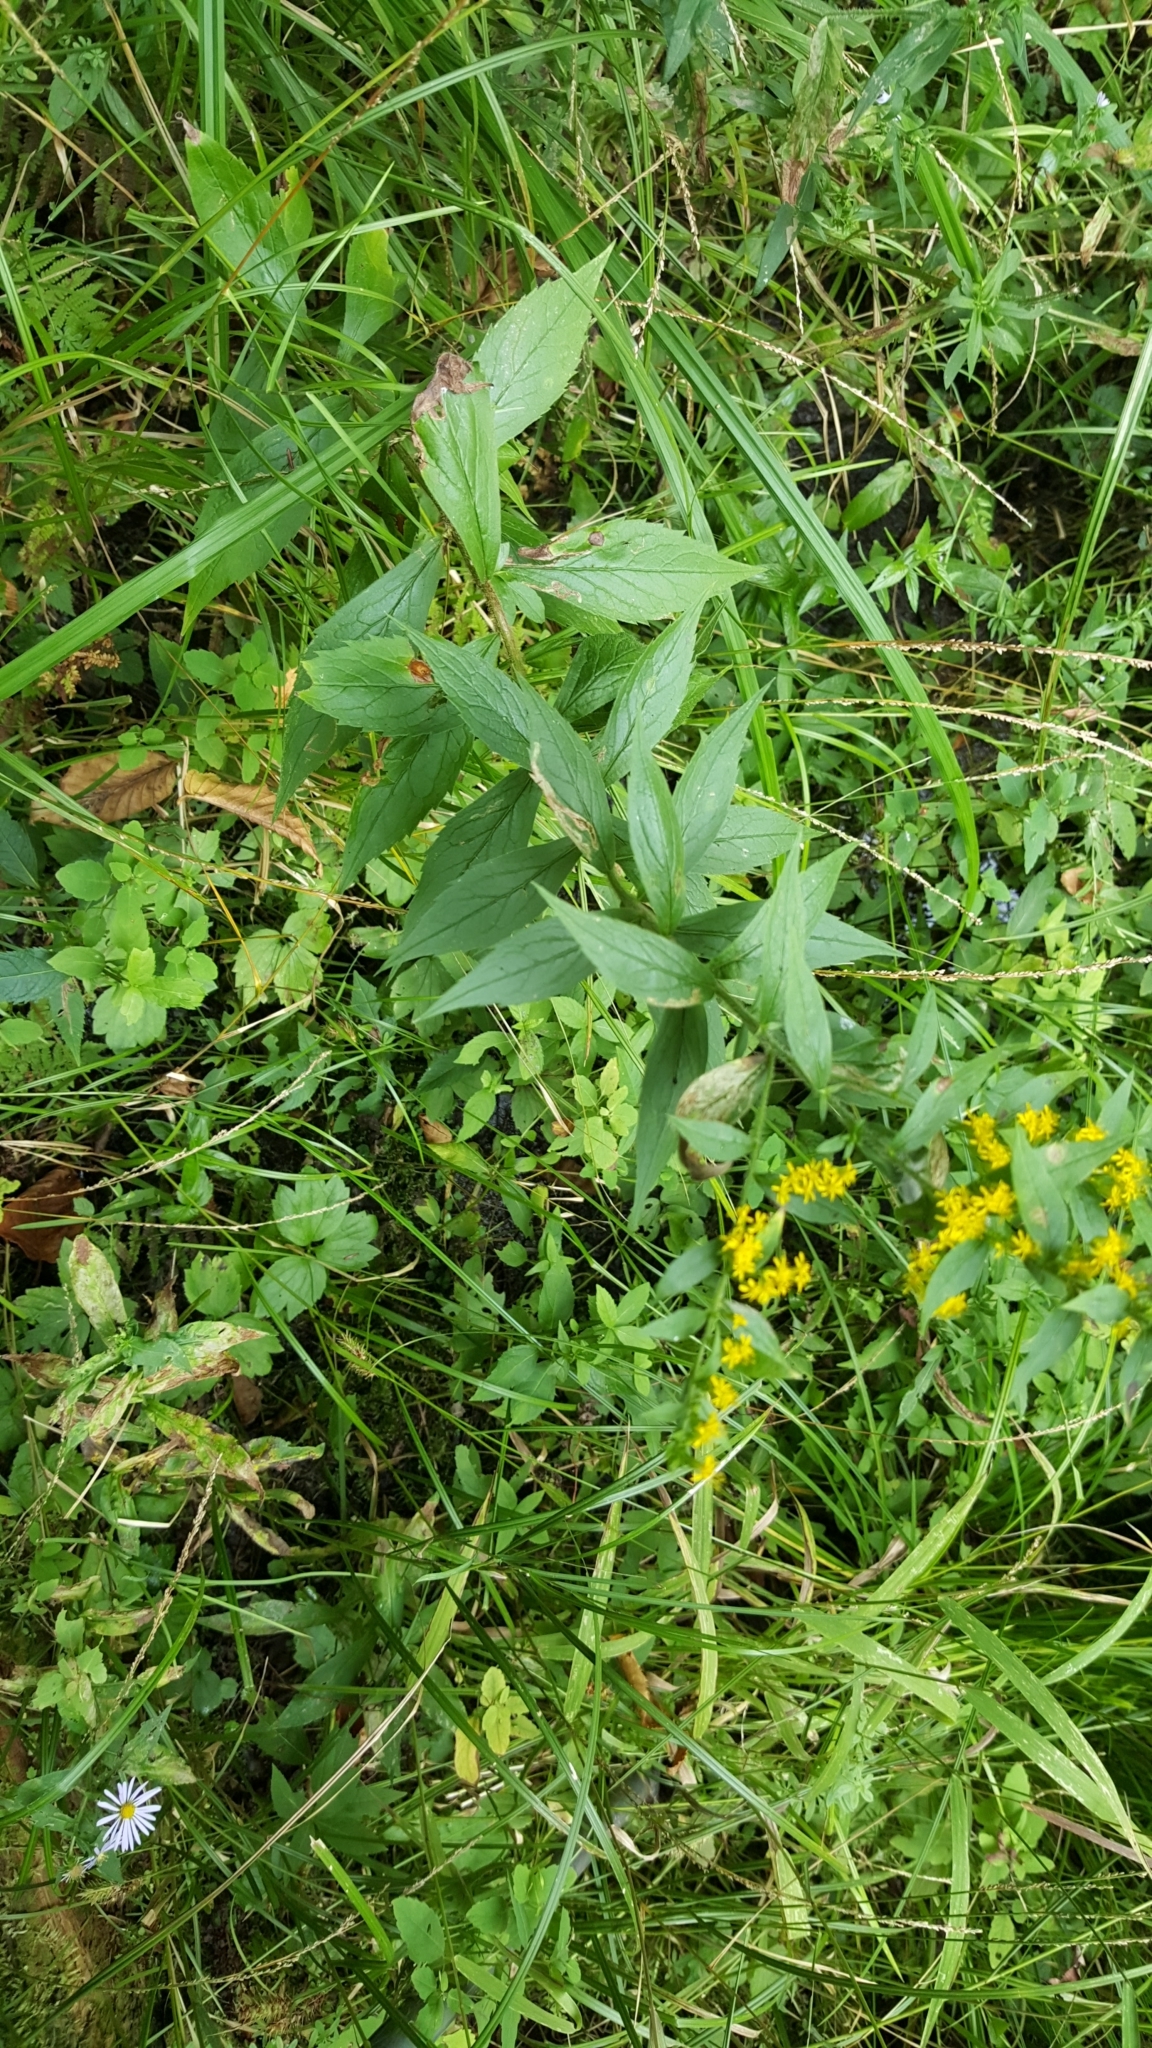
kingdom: Plantae
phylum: Tracheophyta
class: Magnoliopsida
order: Asterales
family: Asteraceae
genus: Solidago
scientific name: Solidago rugosa
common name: Rough-stemmed goldenrod
